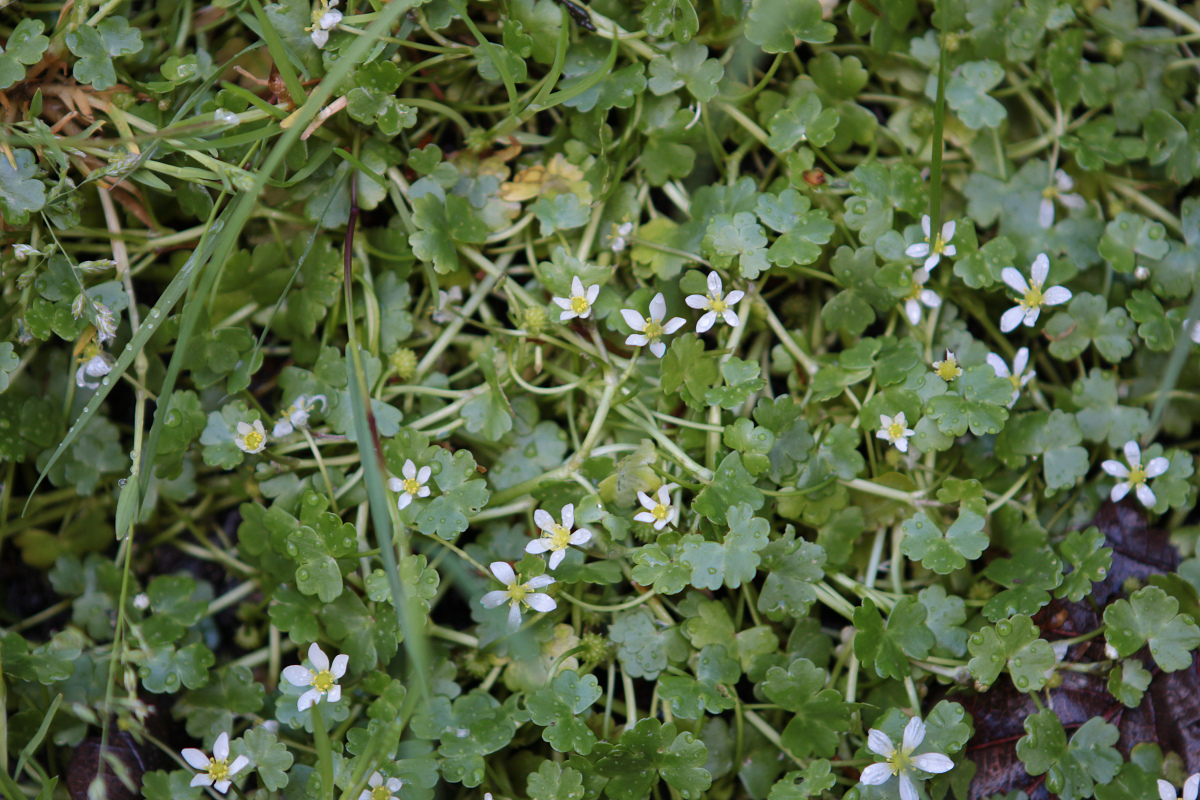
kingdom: Plantae
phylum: Tracheophyta
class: Magnoliopsida
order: Ranunculales
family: Ranunculaceae
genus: Ranunculus
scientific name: Ranunculus omiophyllus
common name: Round-leaved crowfoot
